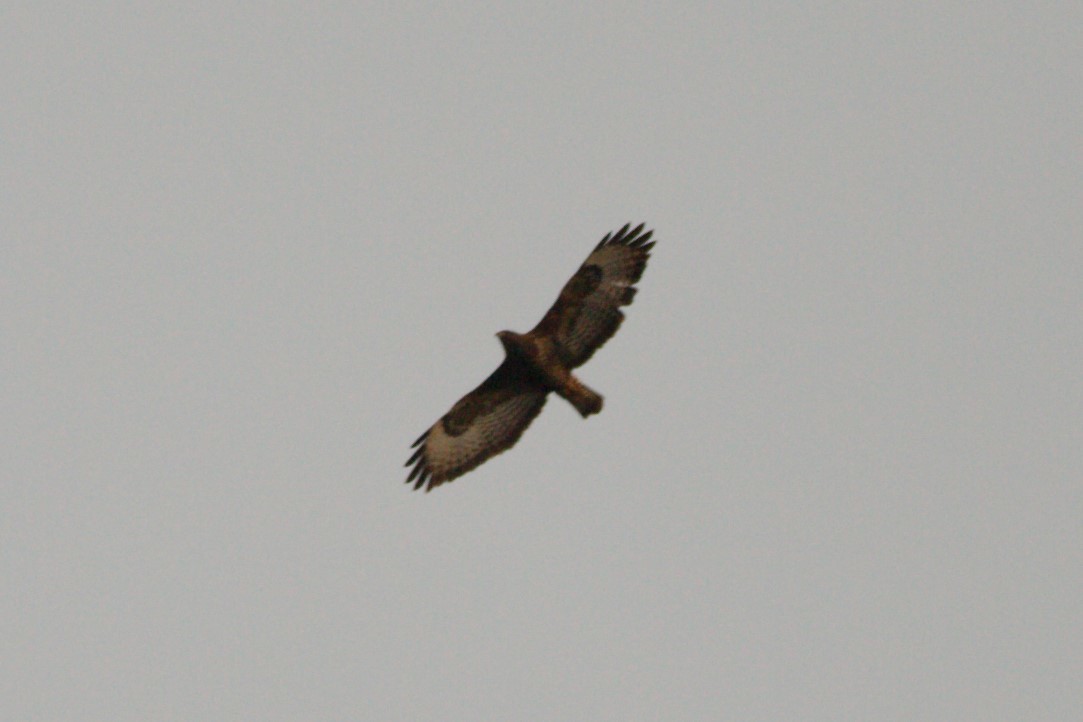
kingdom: Animalia
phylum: Chordata
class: Aves
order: Accipitriformes
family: Accipitridae
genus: Buteo
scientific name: Buteo buteo
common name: Common buzzard
